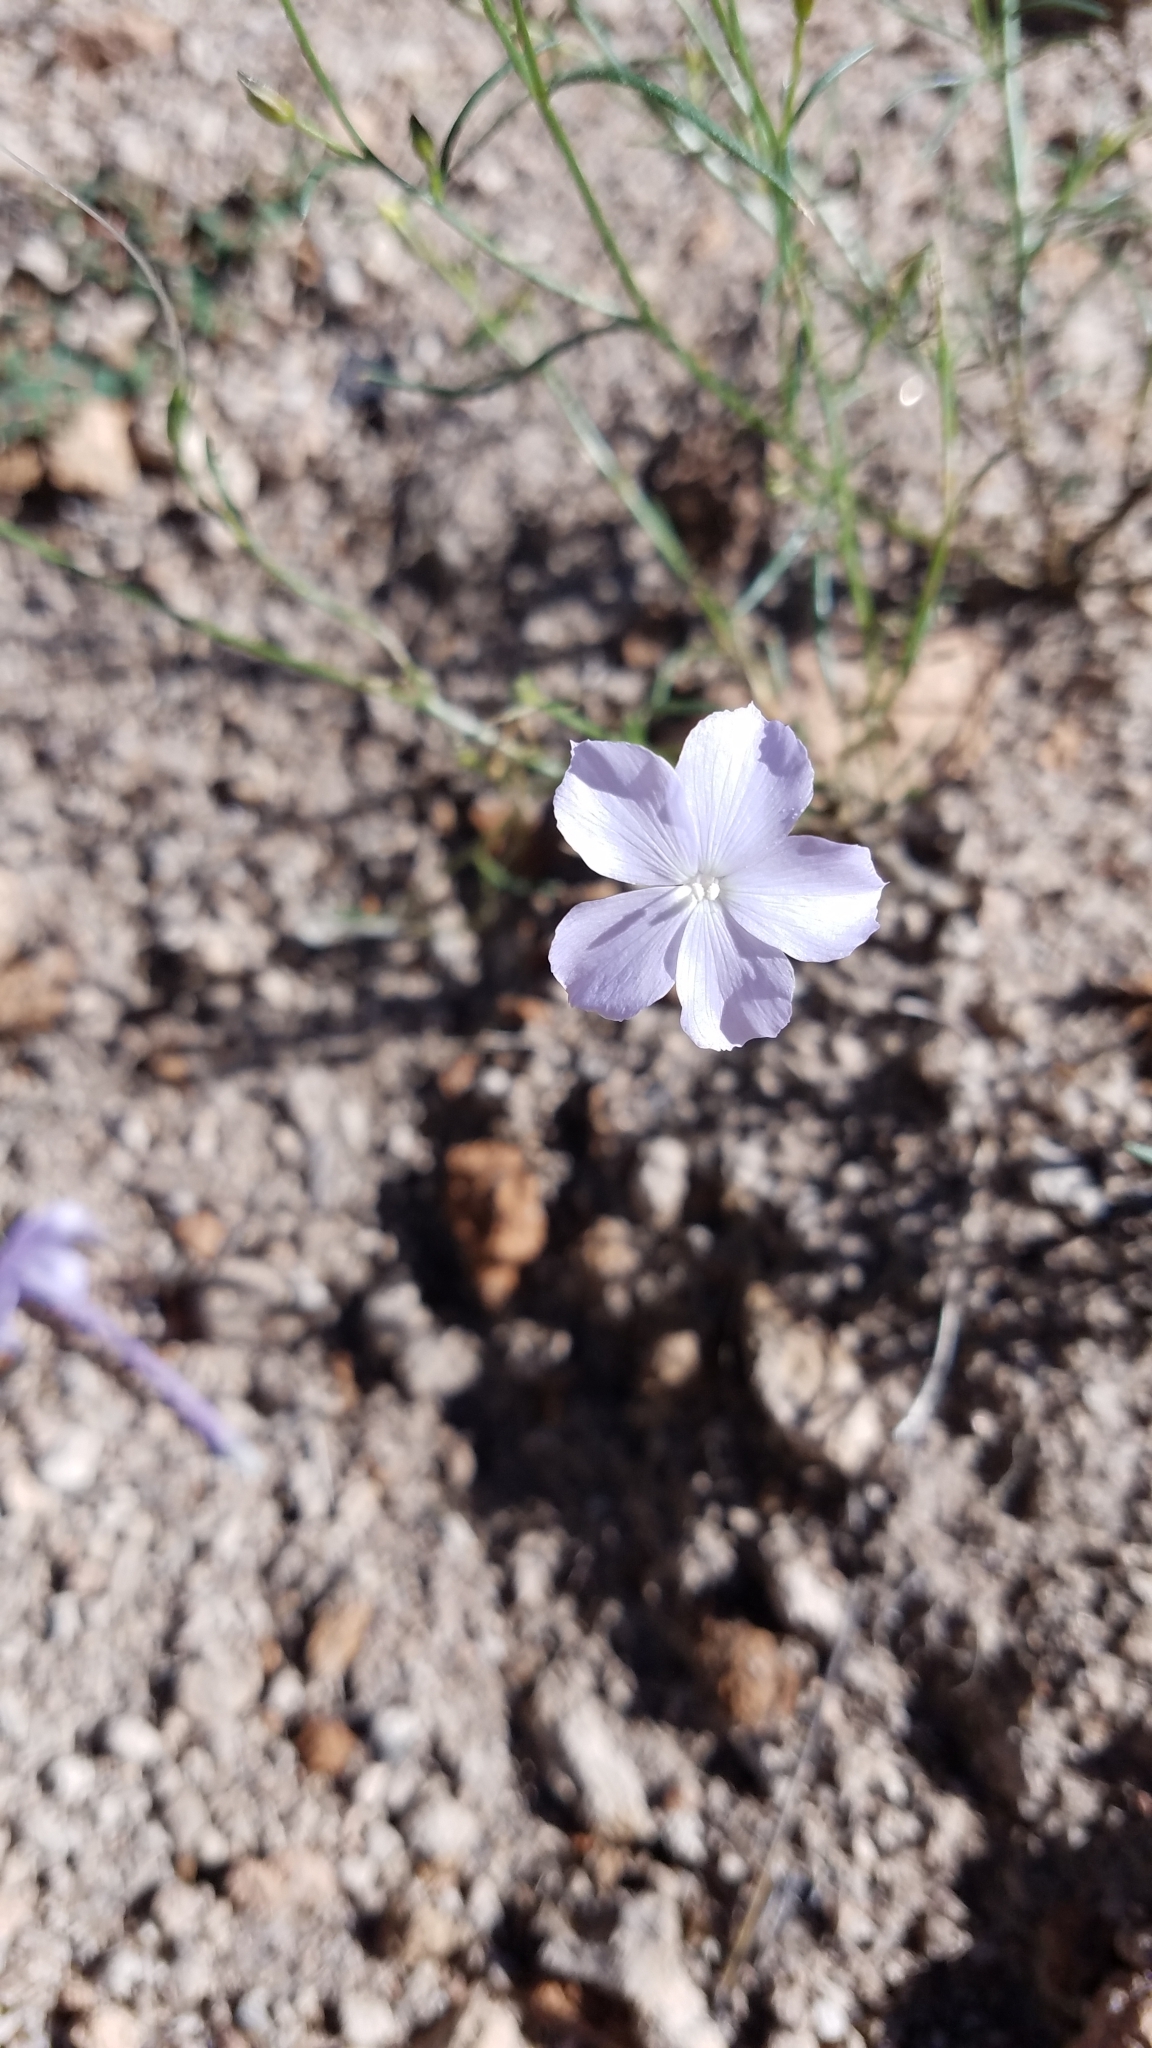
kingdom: Plantae
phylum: Tracheophyta
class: Magnoliopsida
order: Ericales
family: Polemoniaceae
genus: Ipomopsis
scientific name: Ipomopsis longiflora
